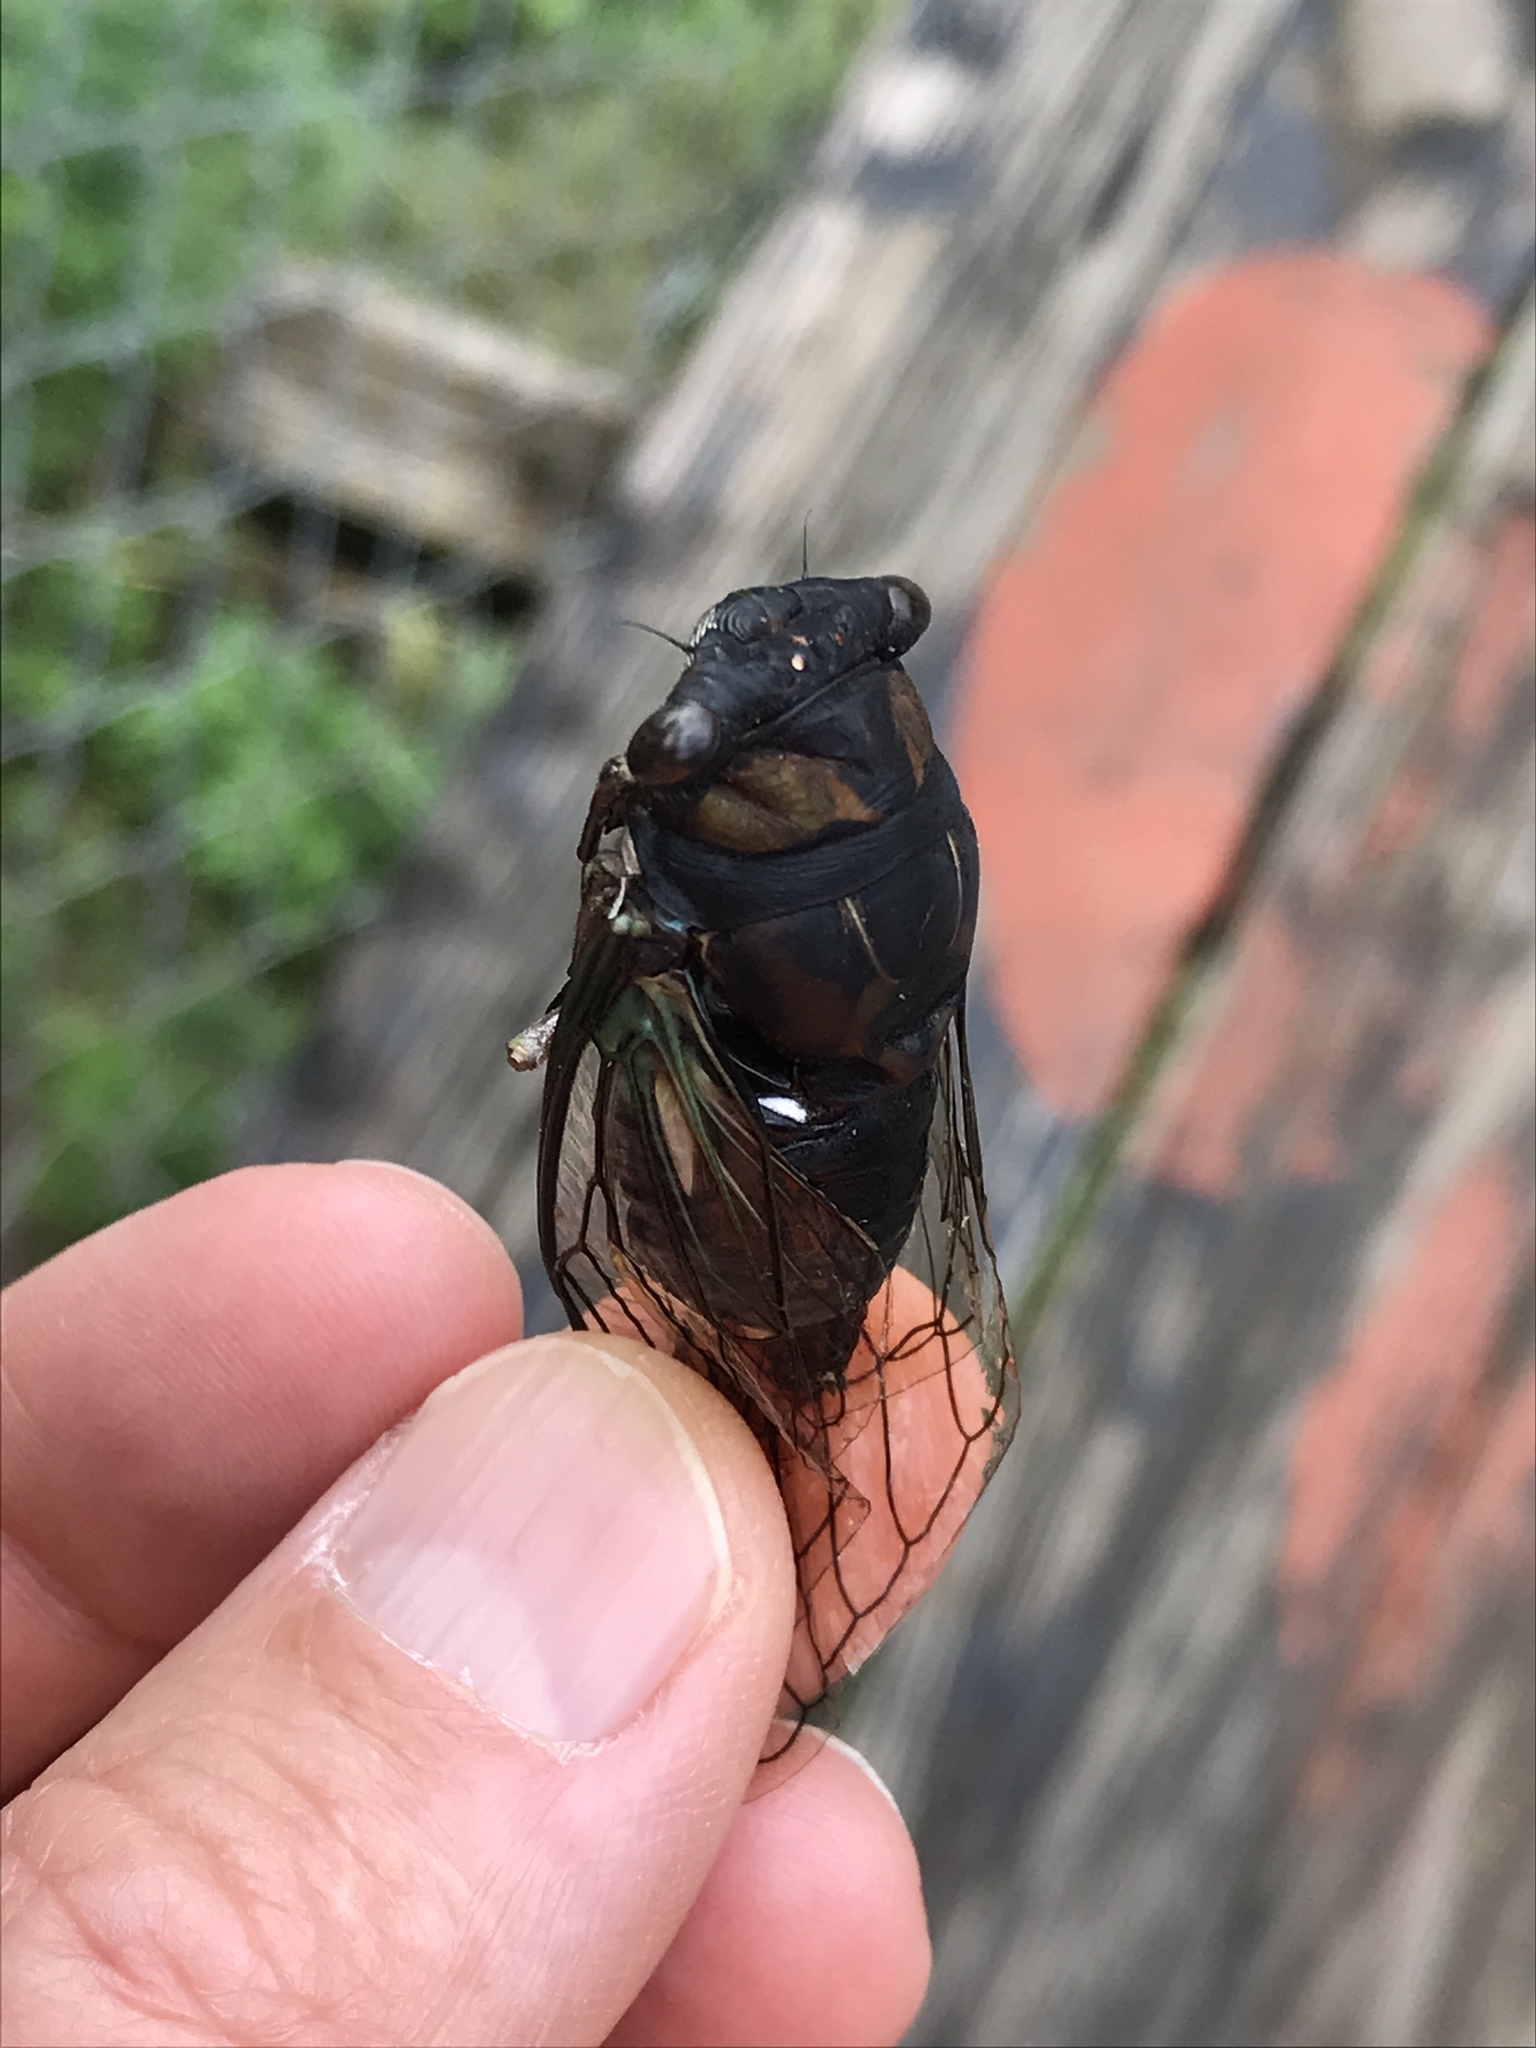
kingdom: Animalia
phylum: Arthropoda
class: Insecta
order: Hemiptera
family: Cicadidae
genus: Neotibicen
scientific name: Neotibicen lyricen
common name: Lyric cicada
